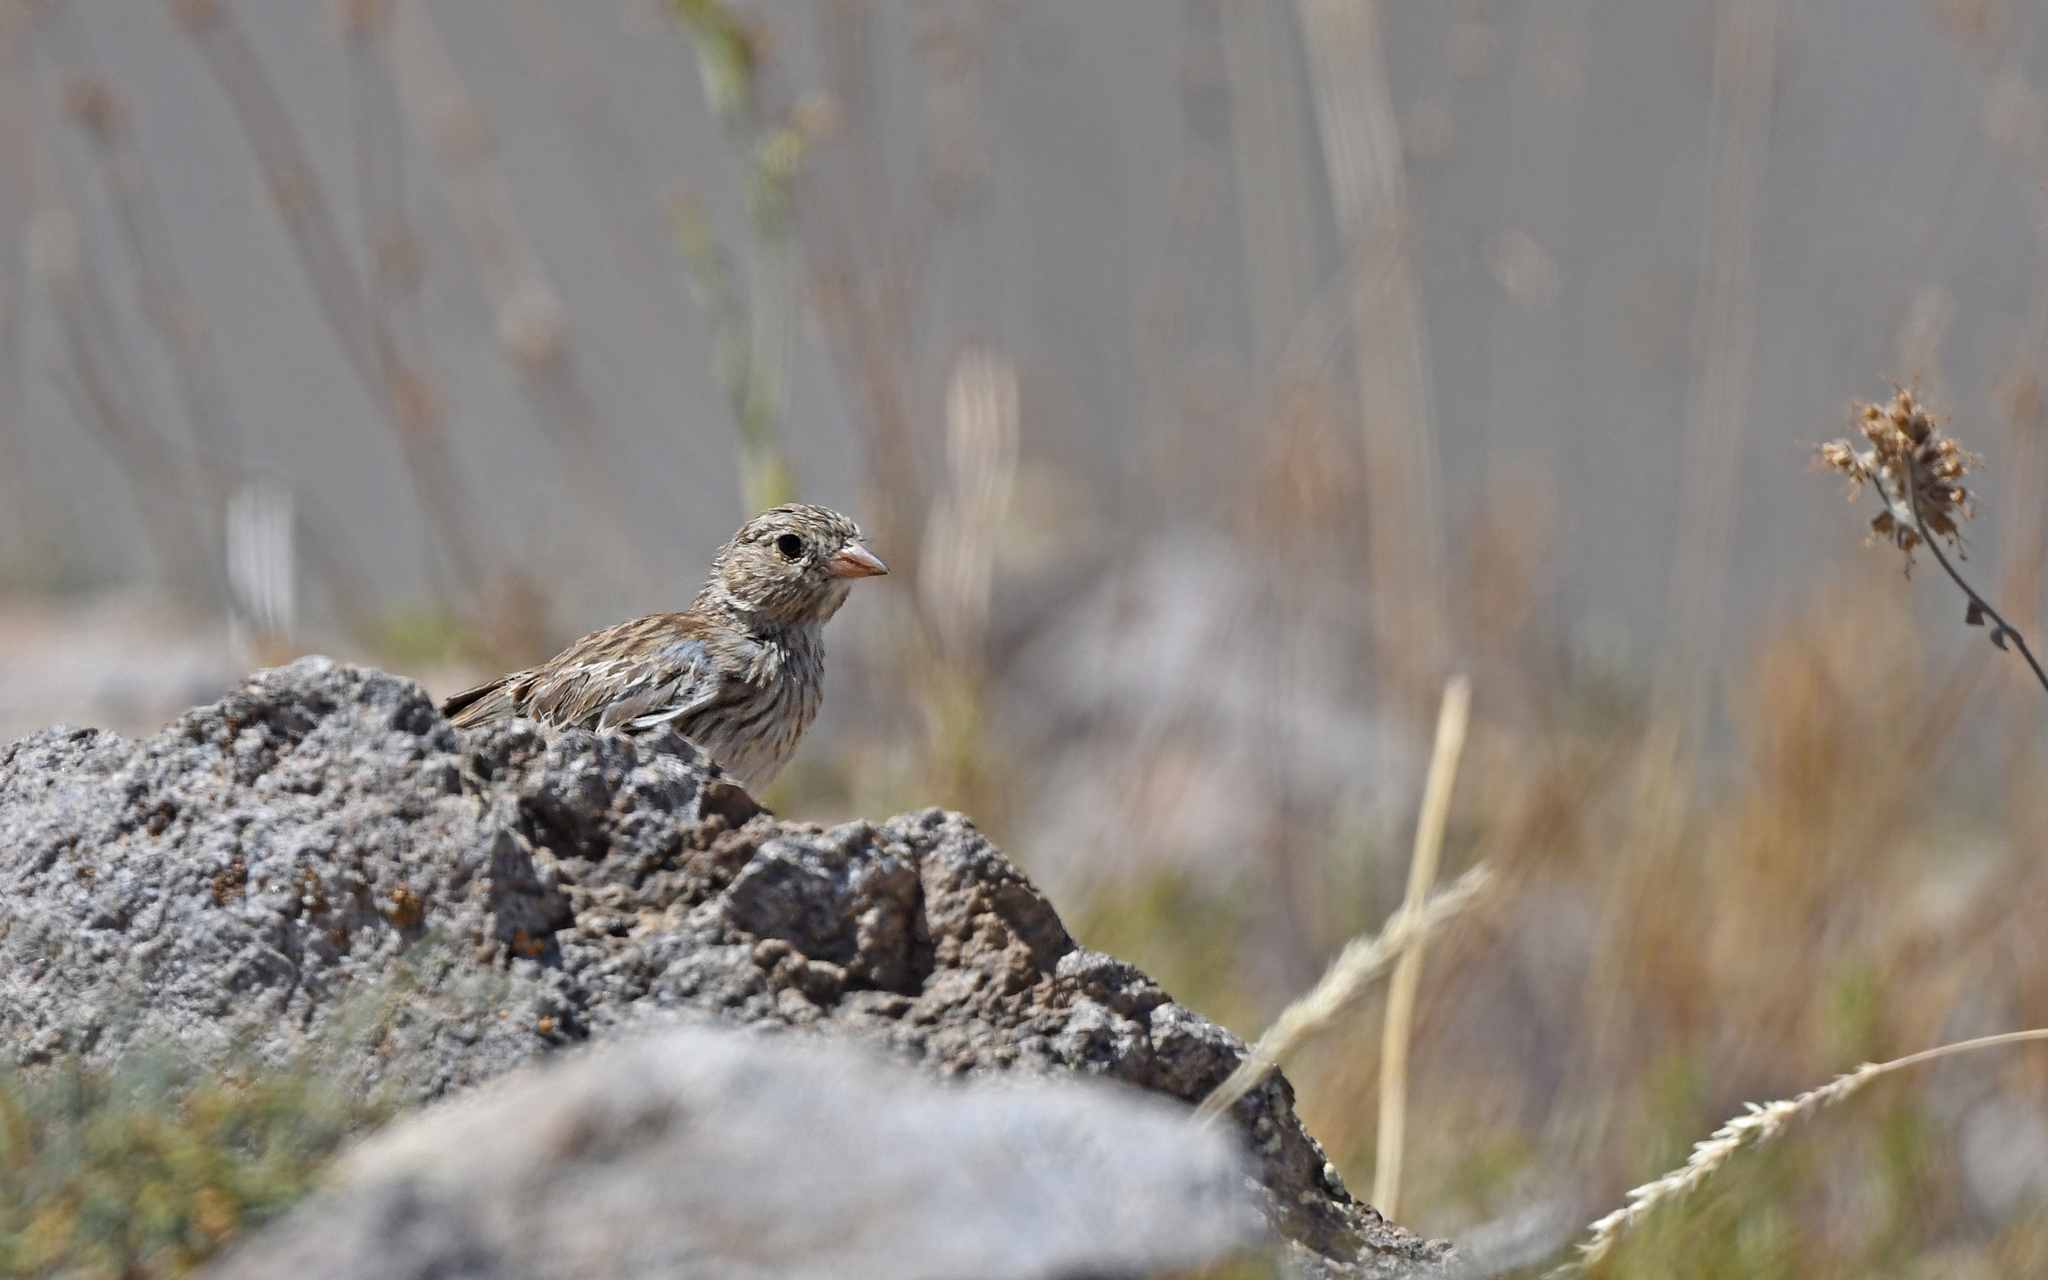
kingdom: Animalia
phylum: Chordata
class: Aves
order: Passeriformes
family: Thraupidae
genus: Porphyrospiza
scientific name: Porphyrospiza alaudina
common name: Band-tailed sierra finch
